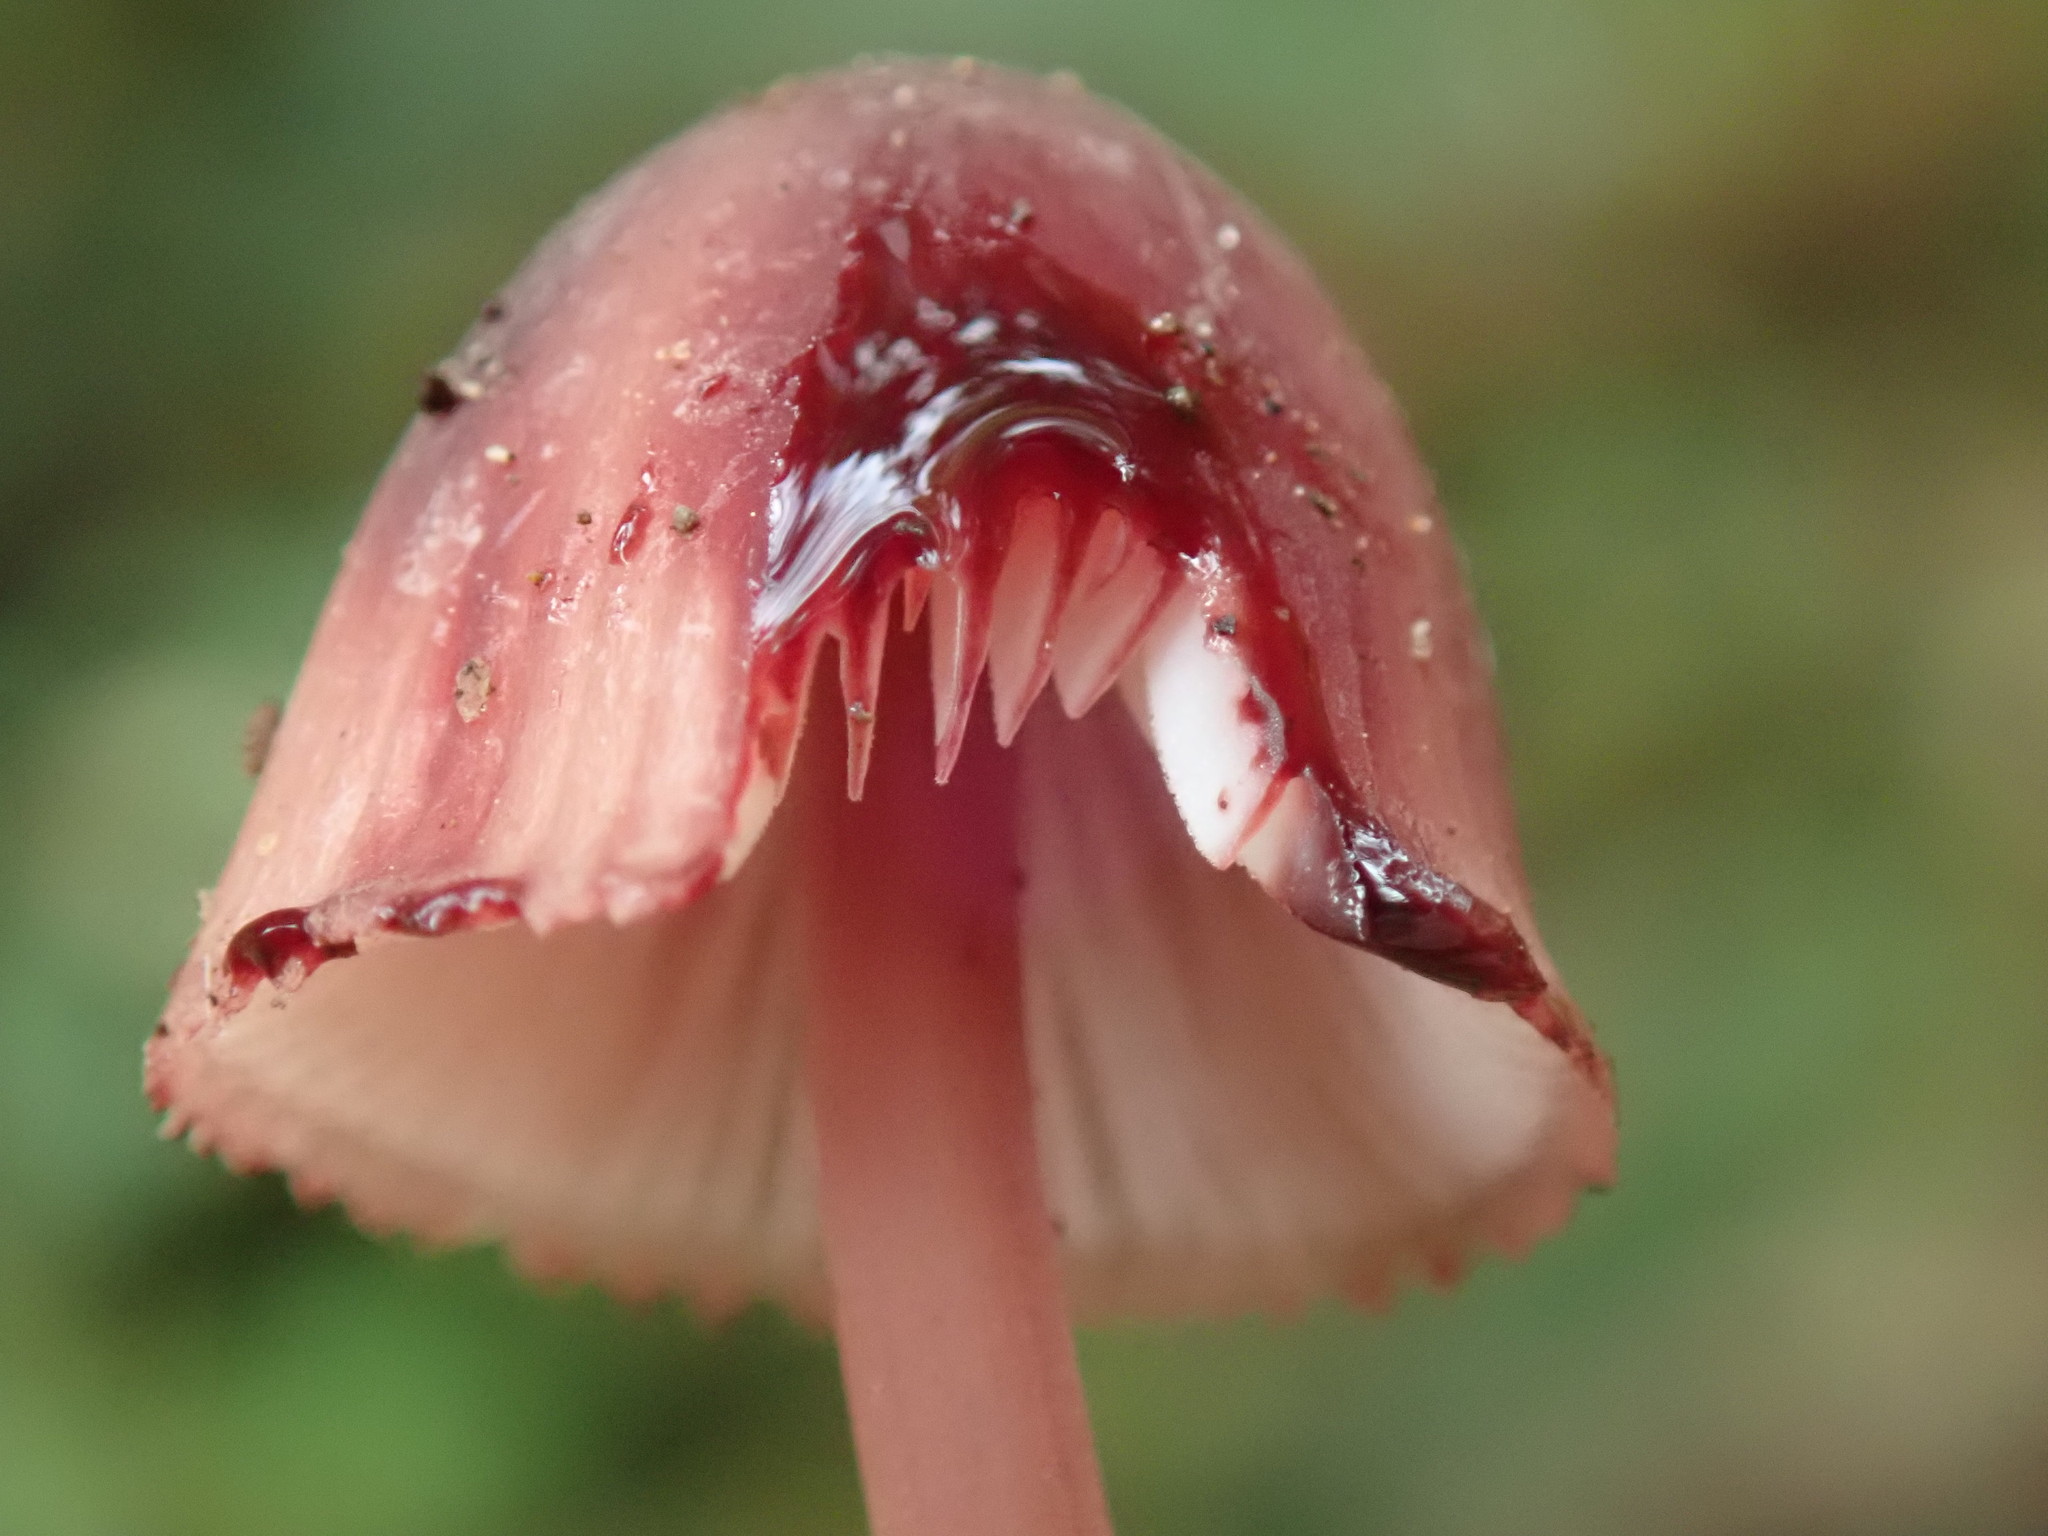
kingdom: Fungi
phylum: Basidiomycota
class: Agaricomycetes
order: Agaricales
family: Mycenaceae
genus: Mycena
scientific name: Mycena haematopus
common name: Burgundydrop bonnet
